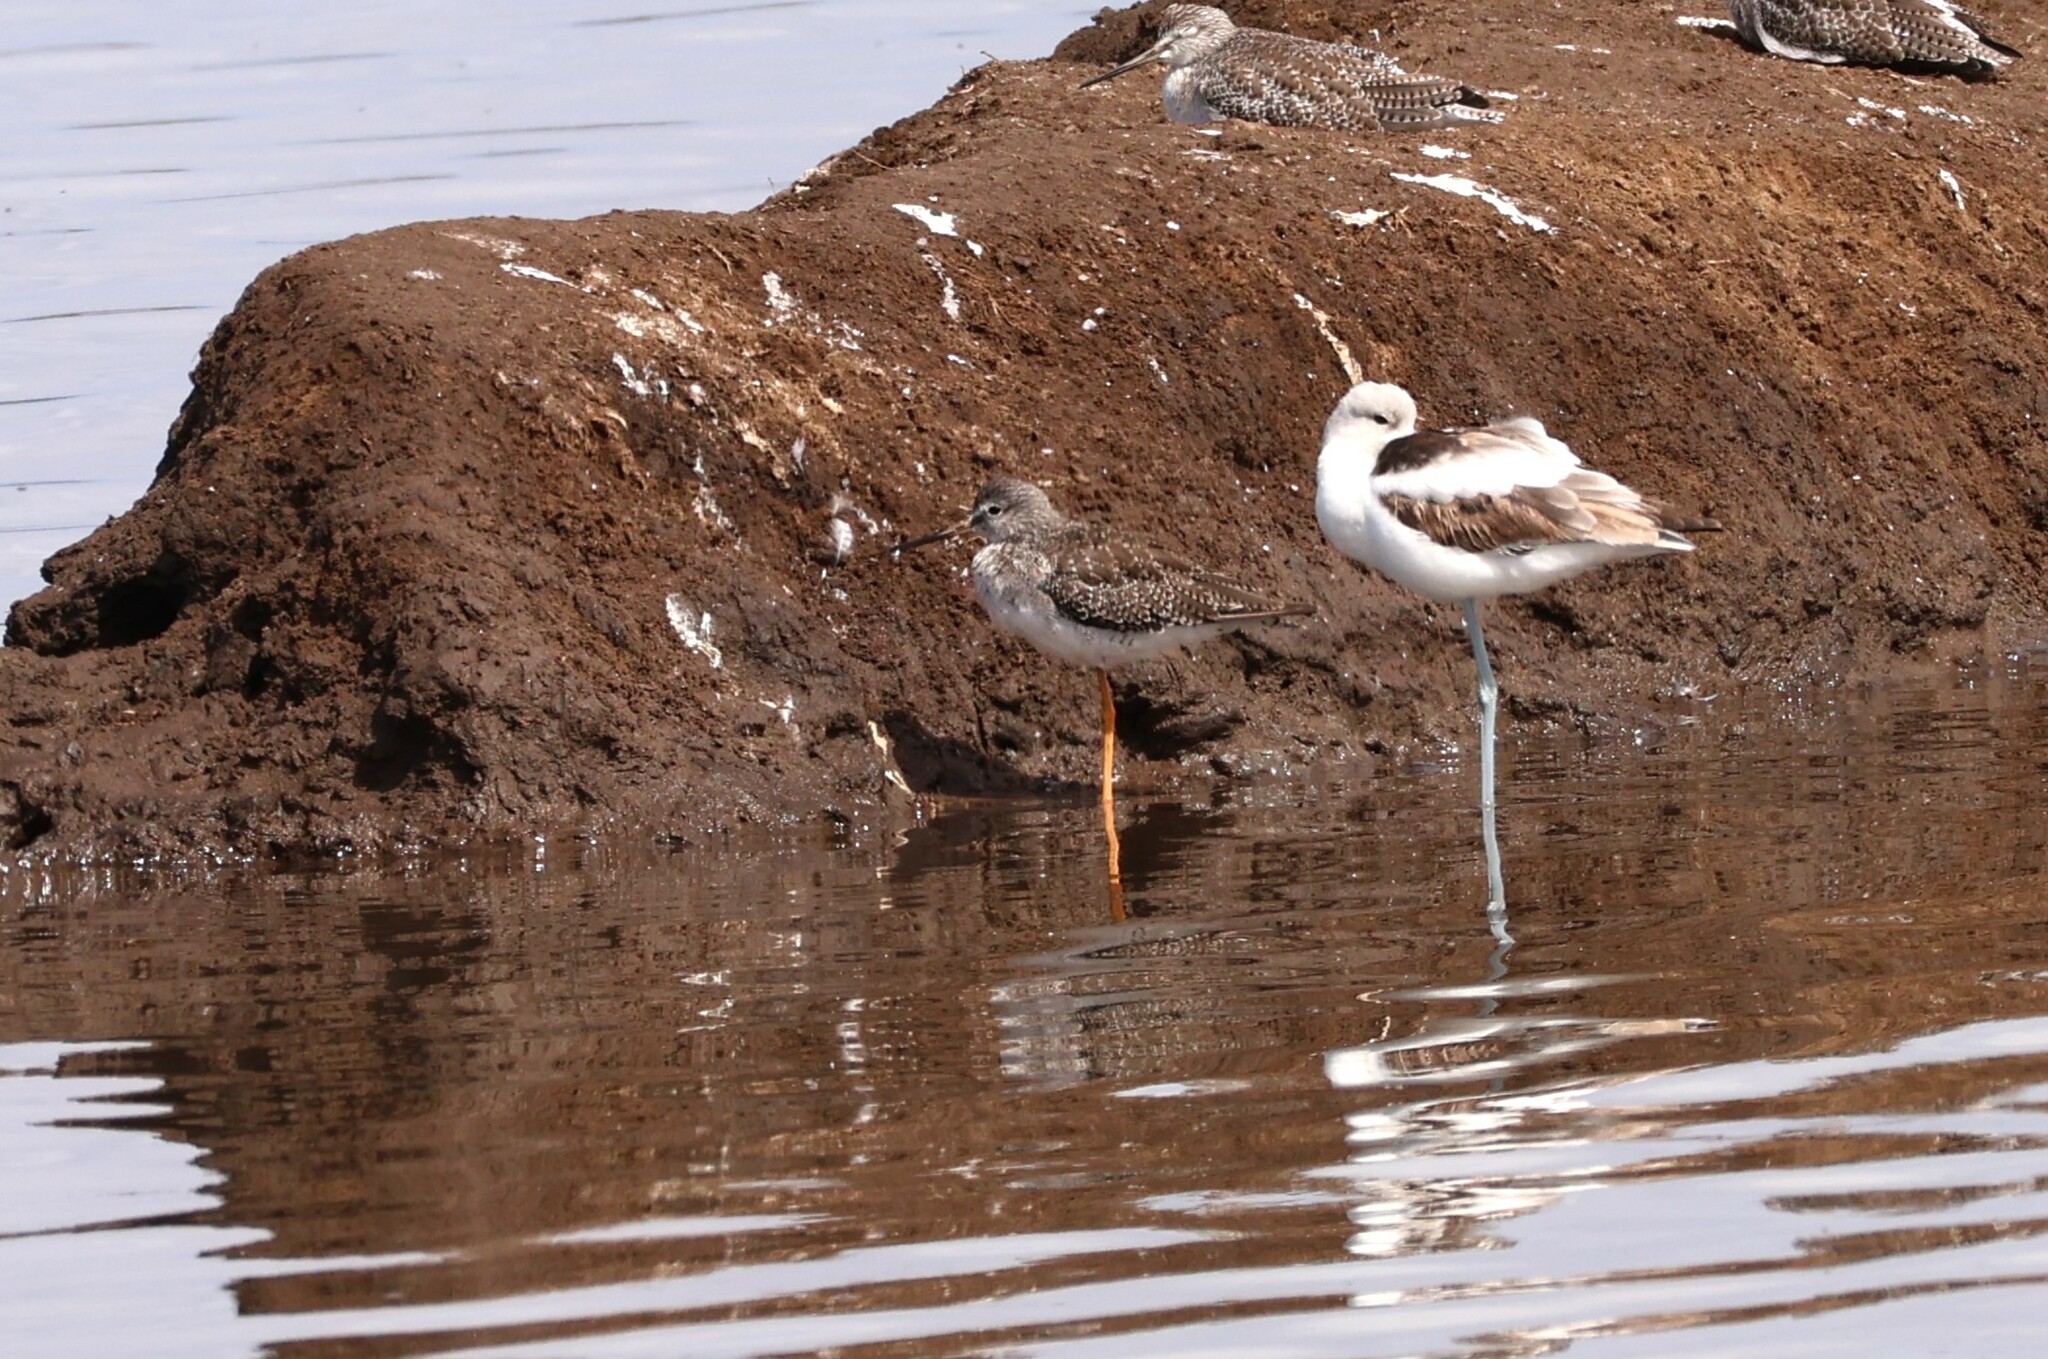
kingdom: Animalia
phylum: Chordata
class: Aves
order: Charadriiformes
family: Scolopacidae
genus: Tringa
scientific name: Tringa melanoleuca
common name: Greater yellowlegs
